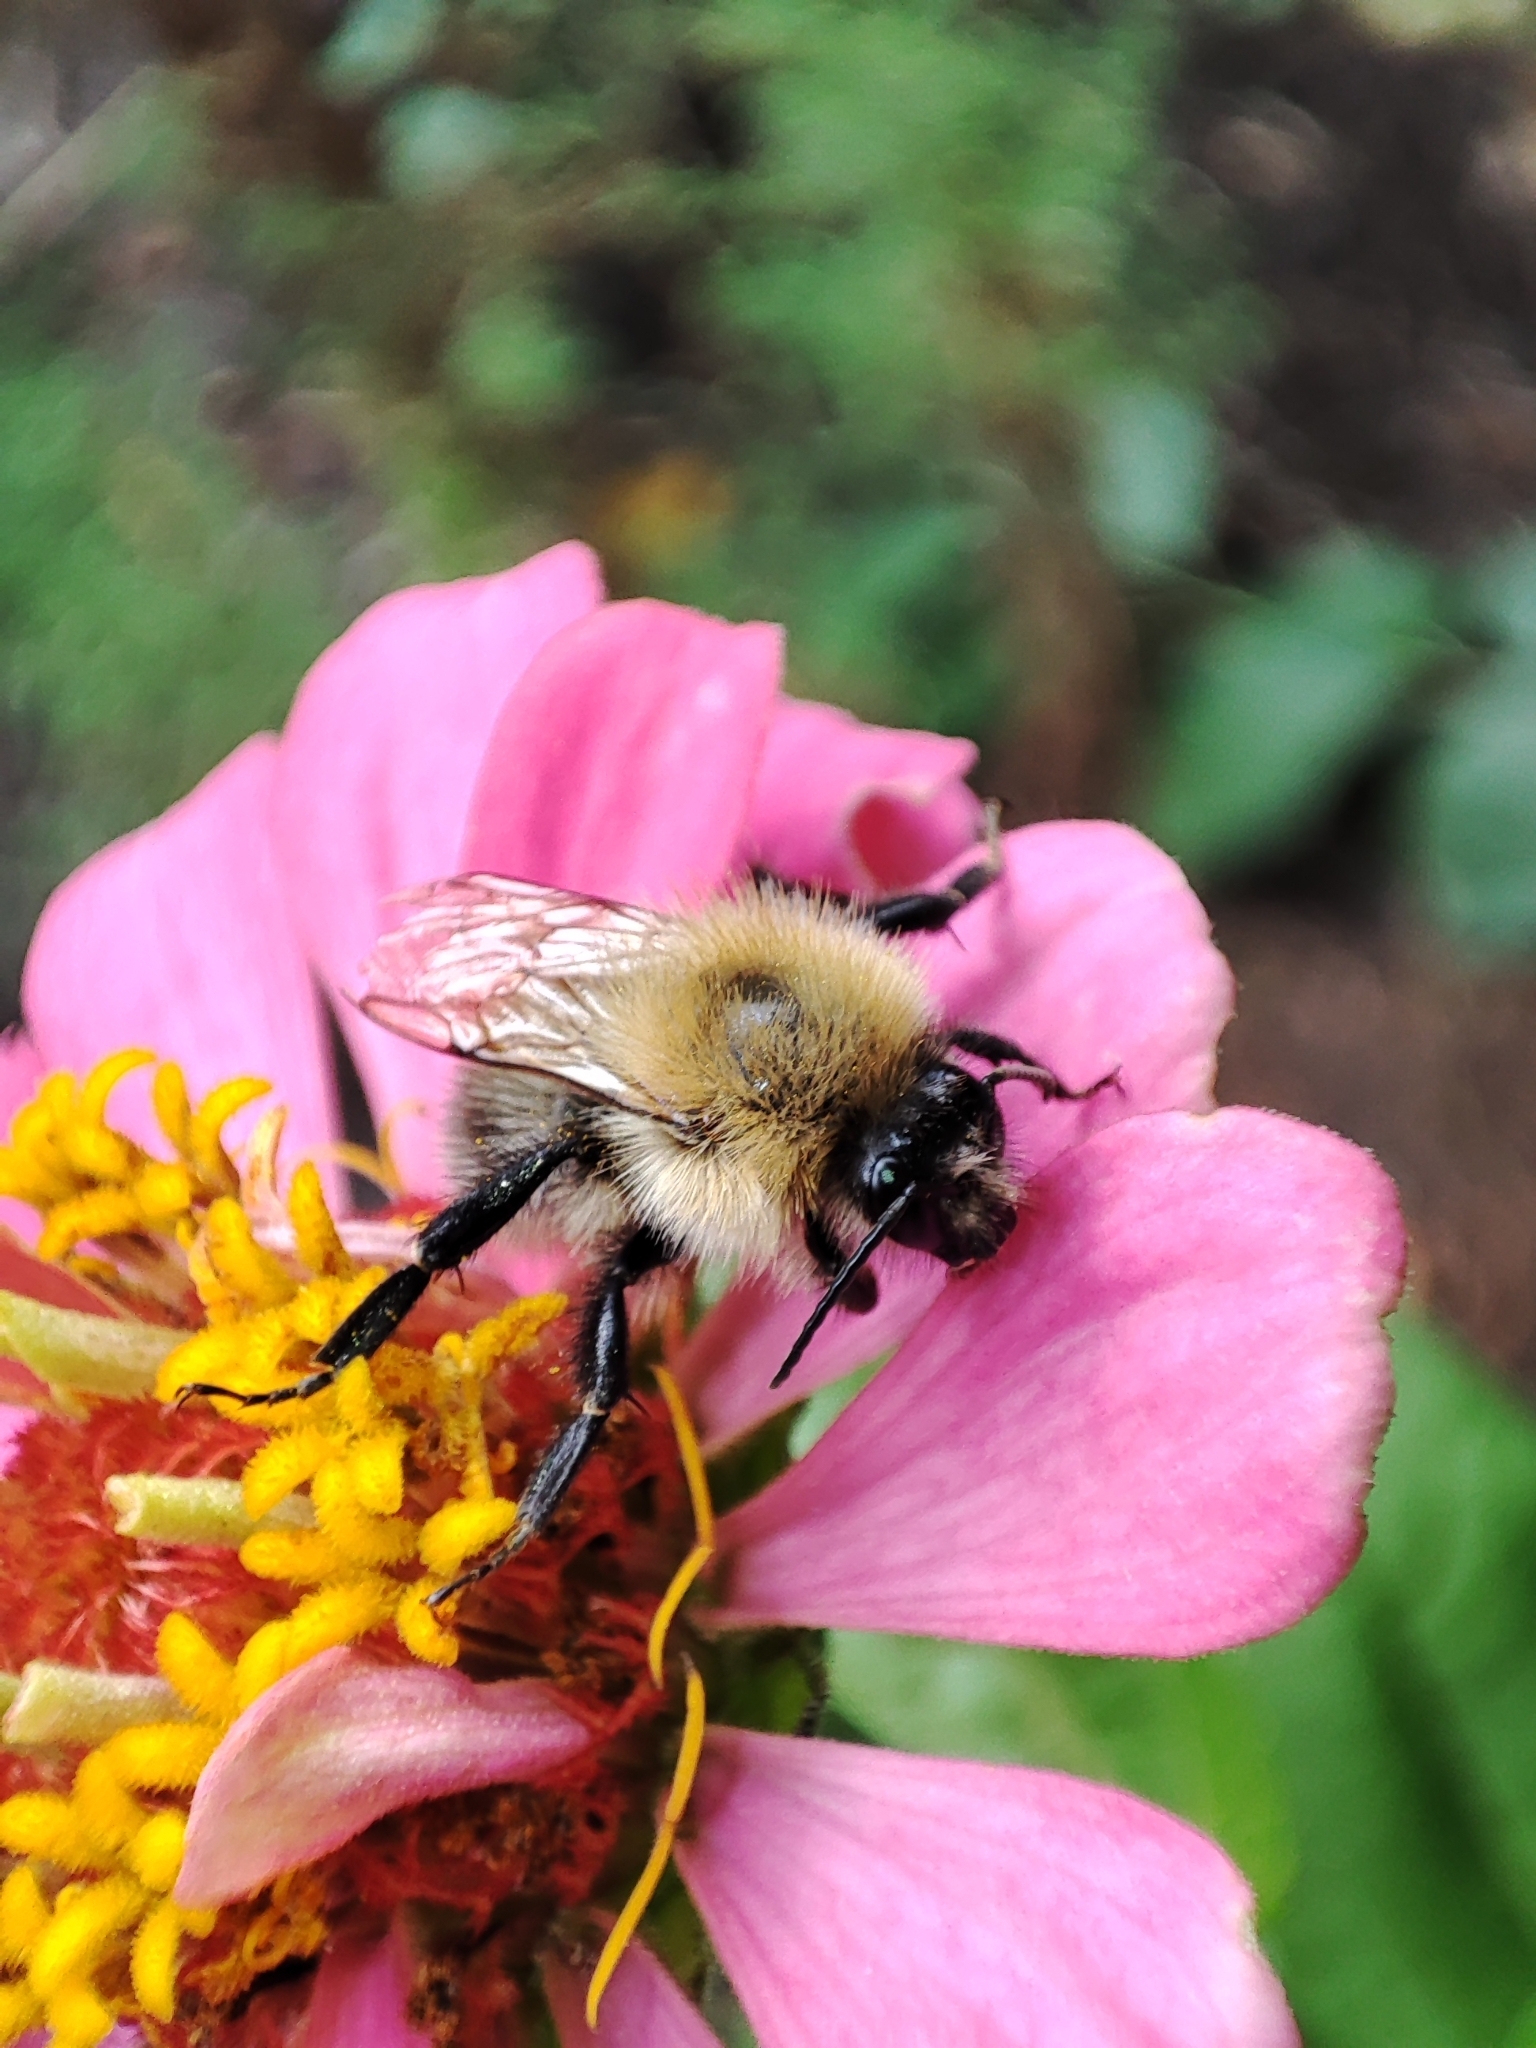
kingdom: Animalia
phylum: Arthropoda
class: Insecta
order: Hymenoptera
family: Apidae
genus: Bombus
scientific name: Bombus pascuorum
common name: Common carder bee
